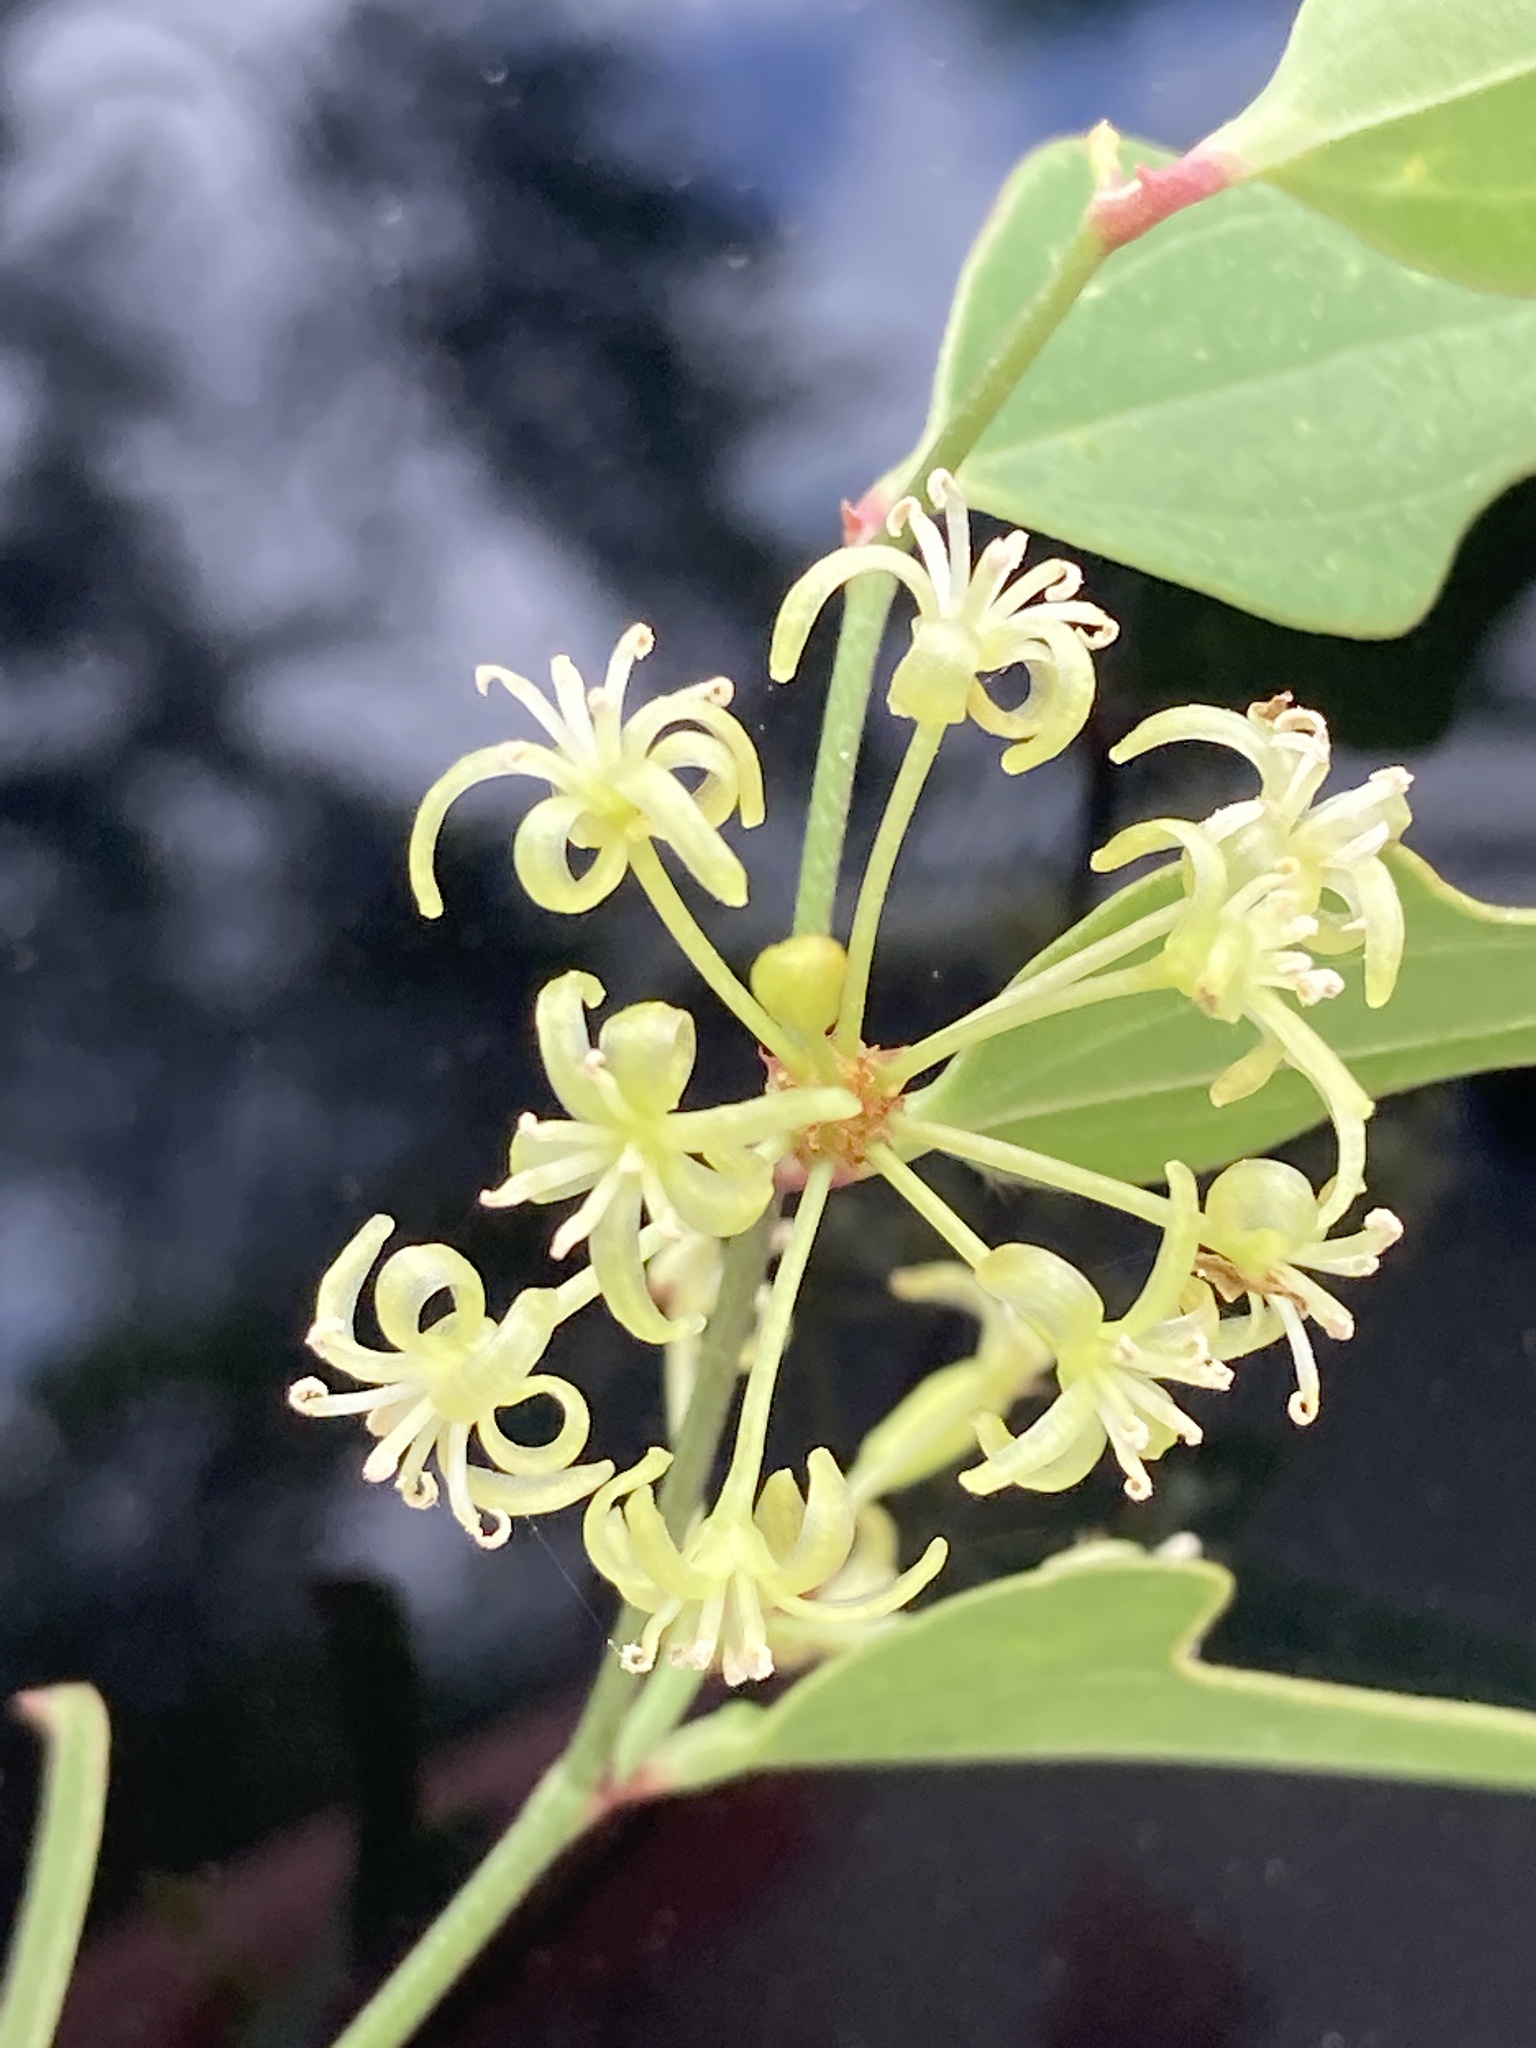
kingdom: Plantae
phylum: Tracheophyta
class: Liliopsida
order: Liliales
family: Smilacaceae
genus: Smilax
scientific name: Smilax auriculata
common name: Wild bamboo
